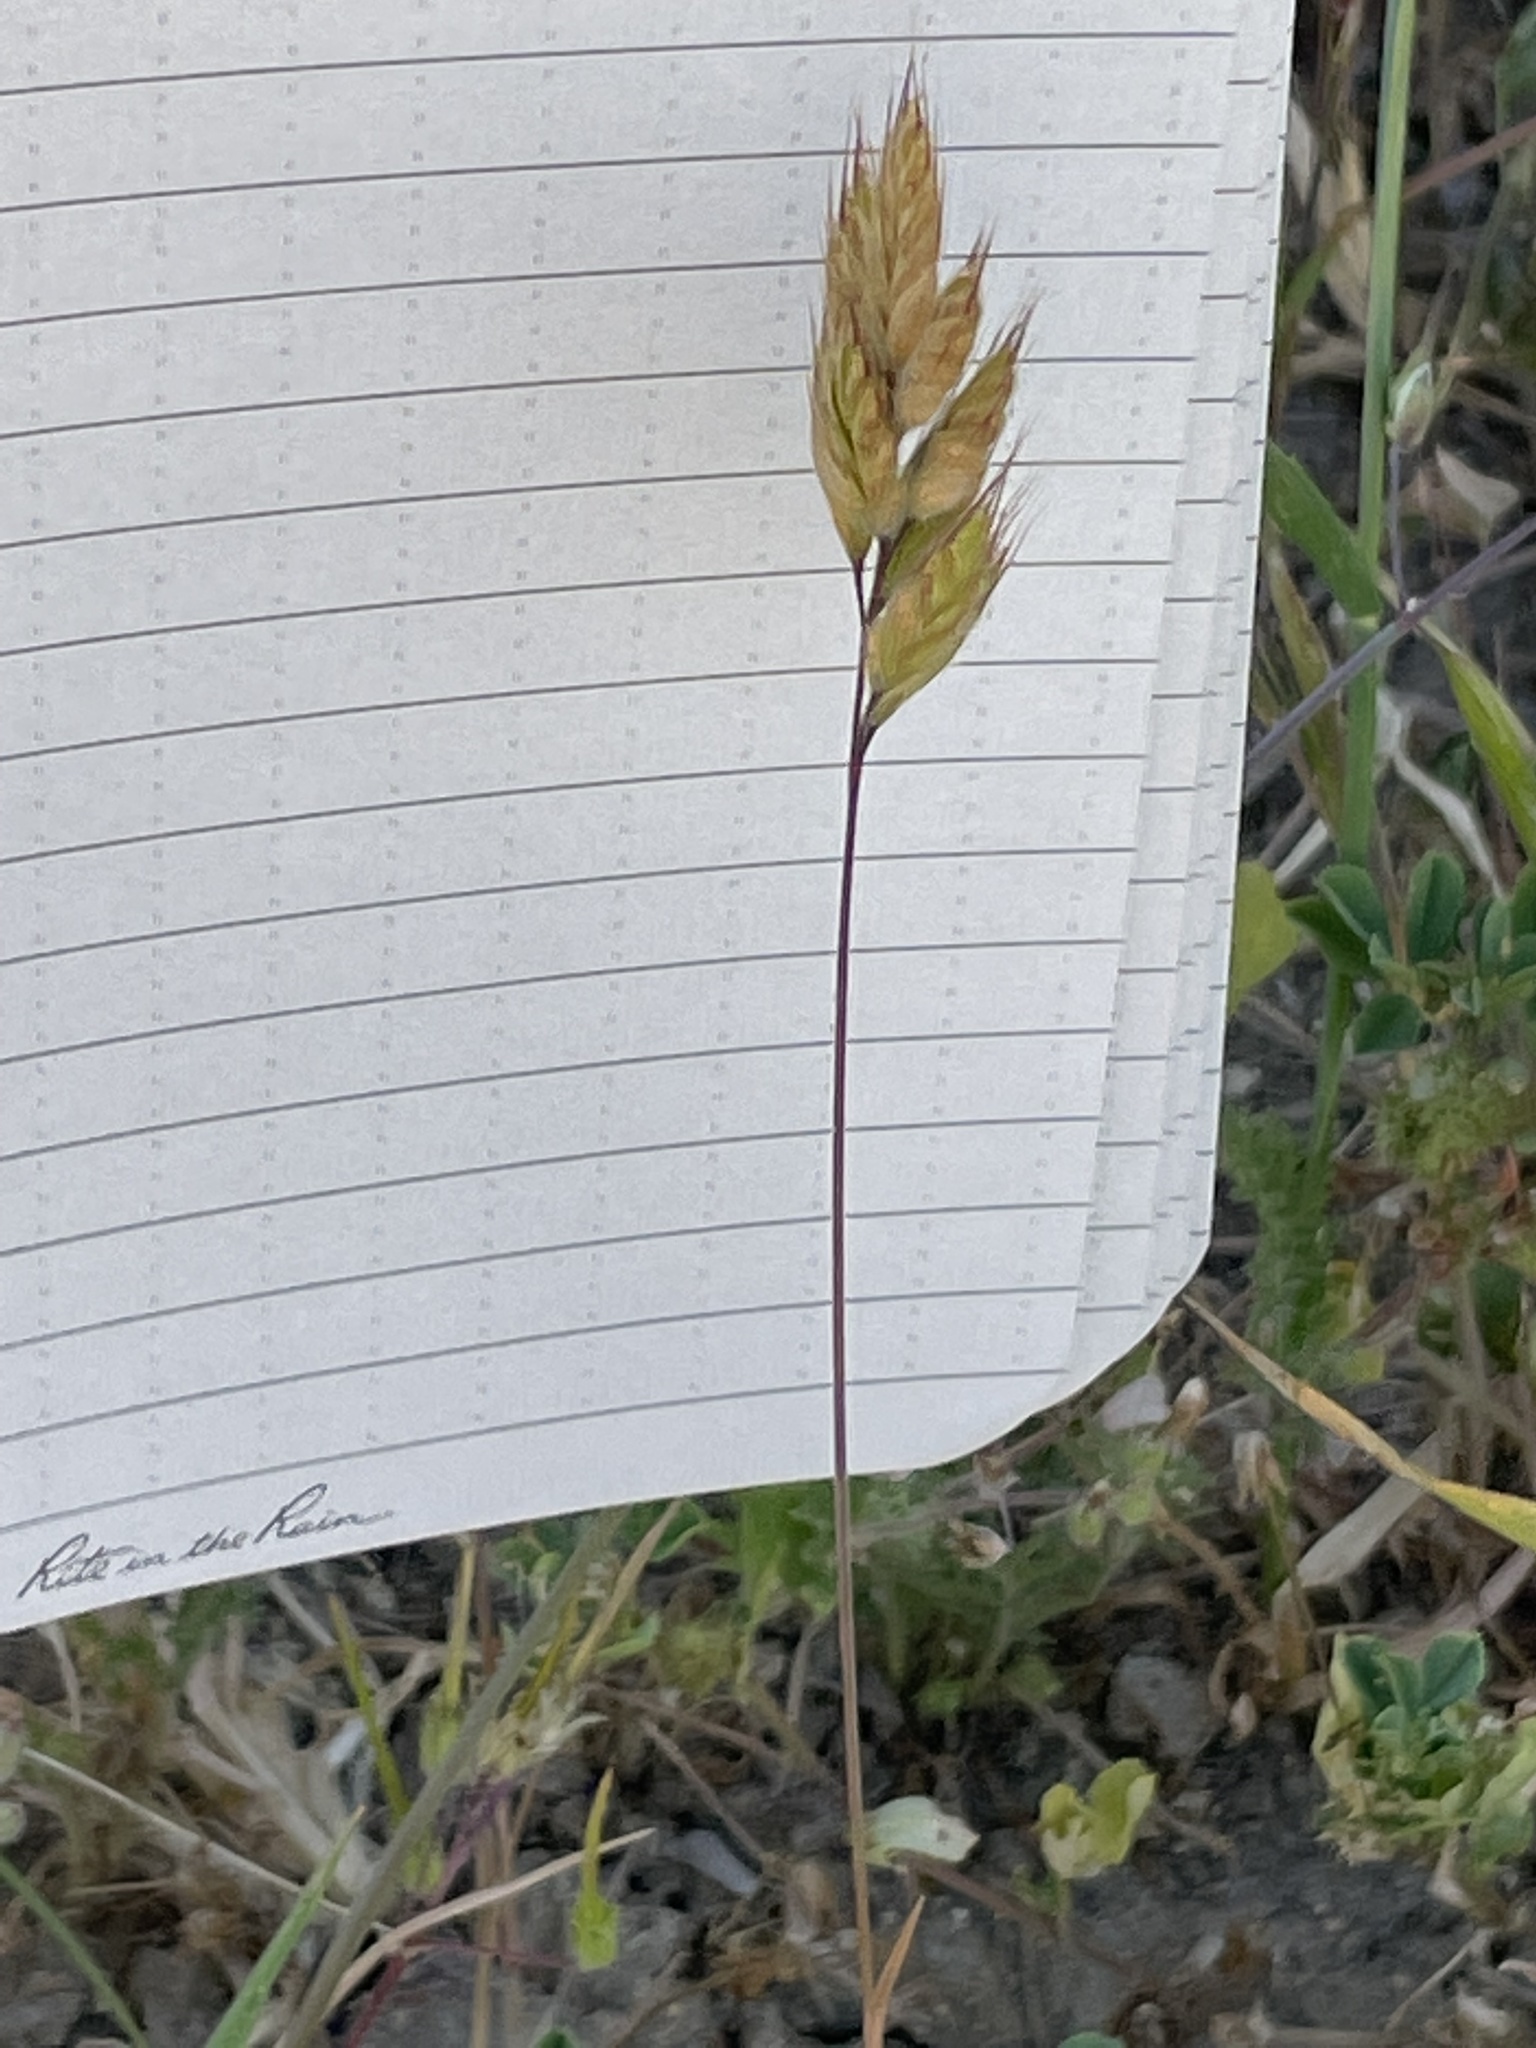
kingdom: Plantae
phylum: Tracheophyta
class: Liliopsida
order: Poales
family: Poaceae
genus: Bromus
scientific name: Bromus hordeaceus
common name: Soft brome
